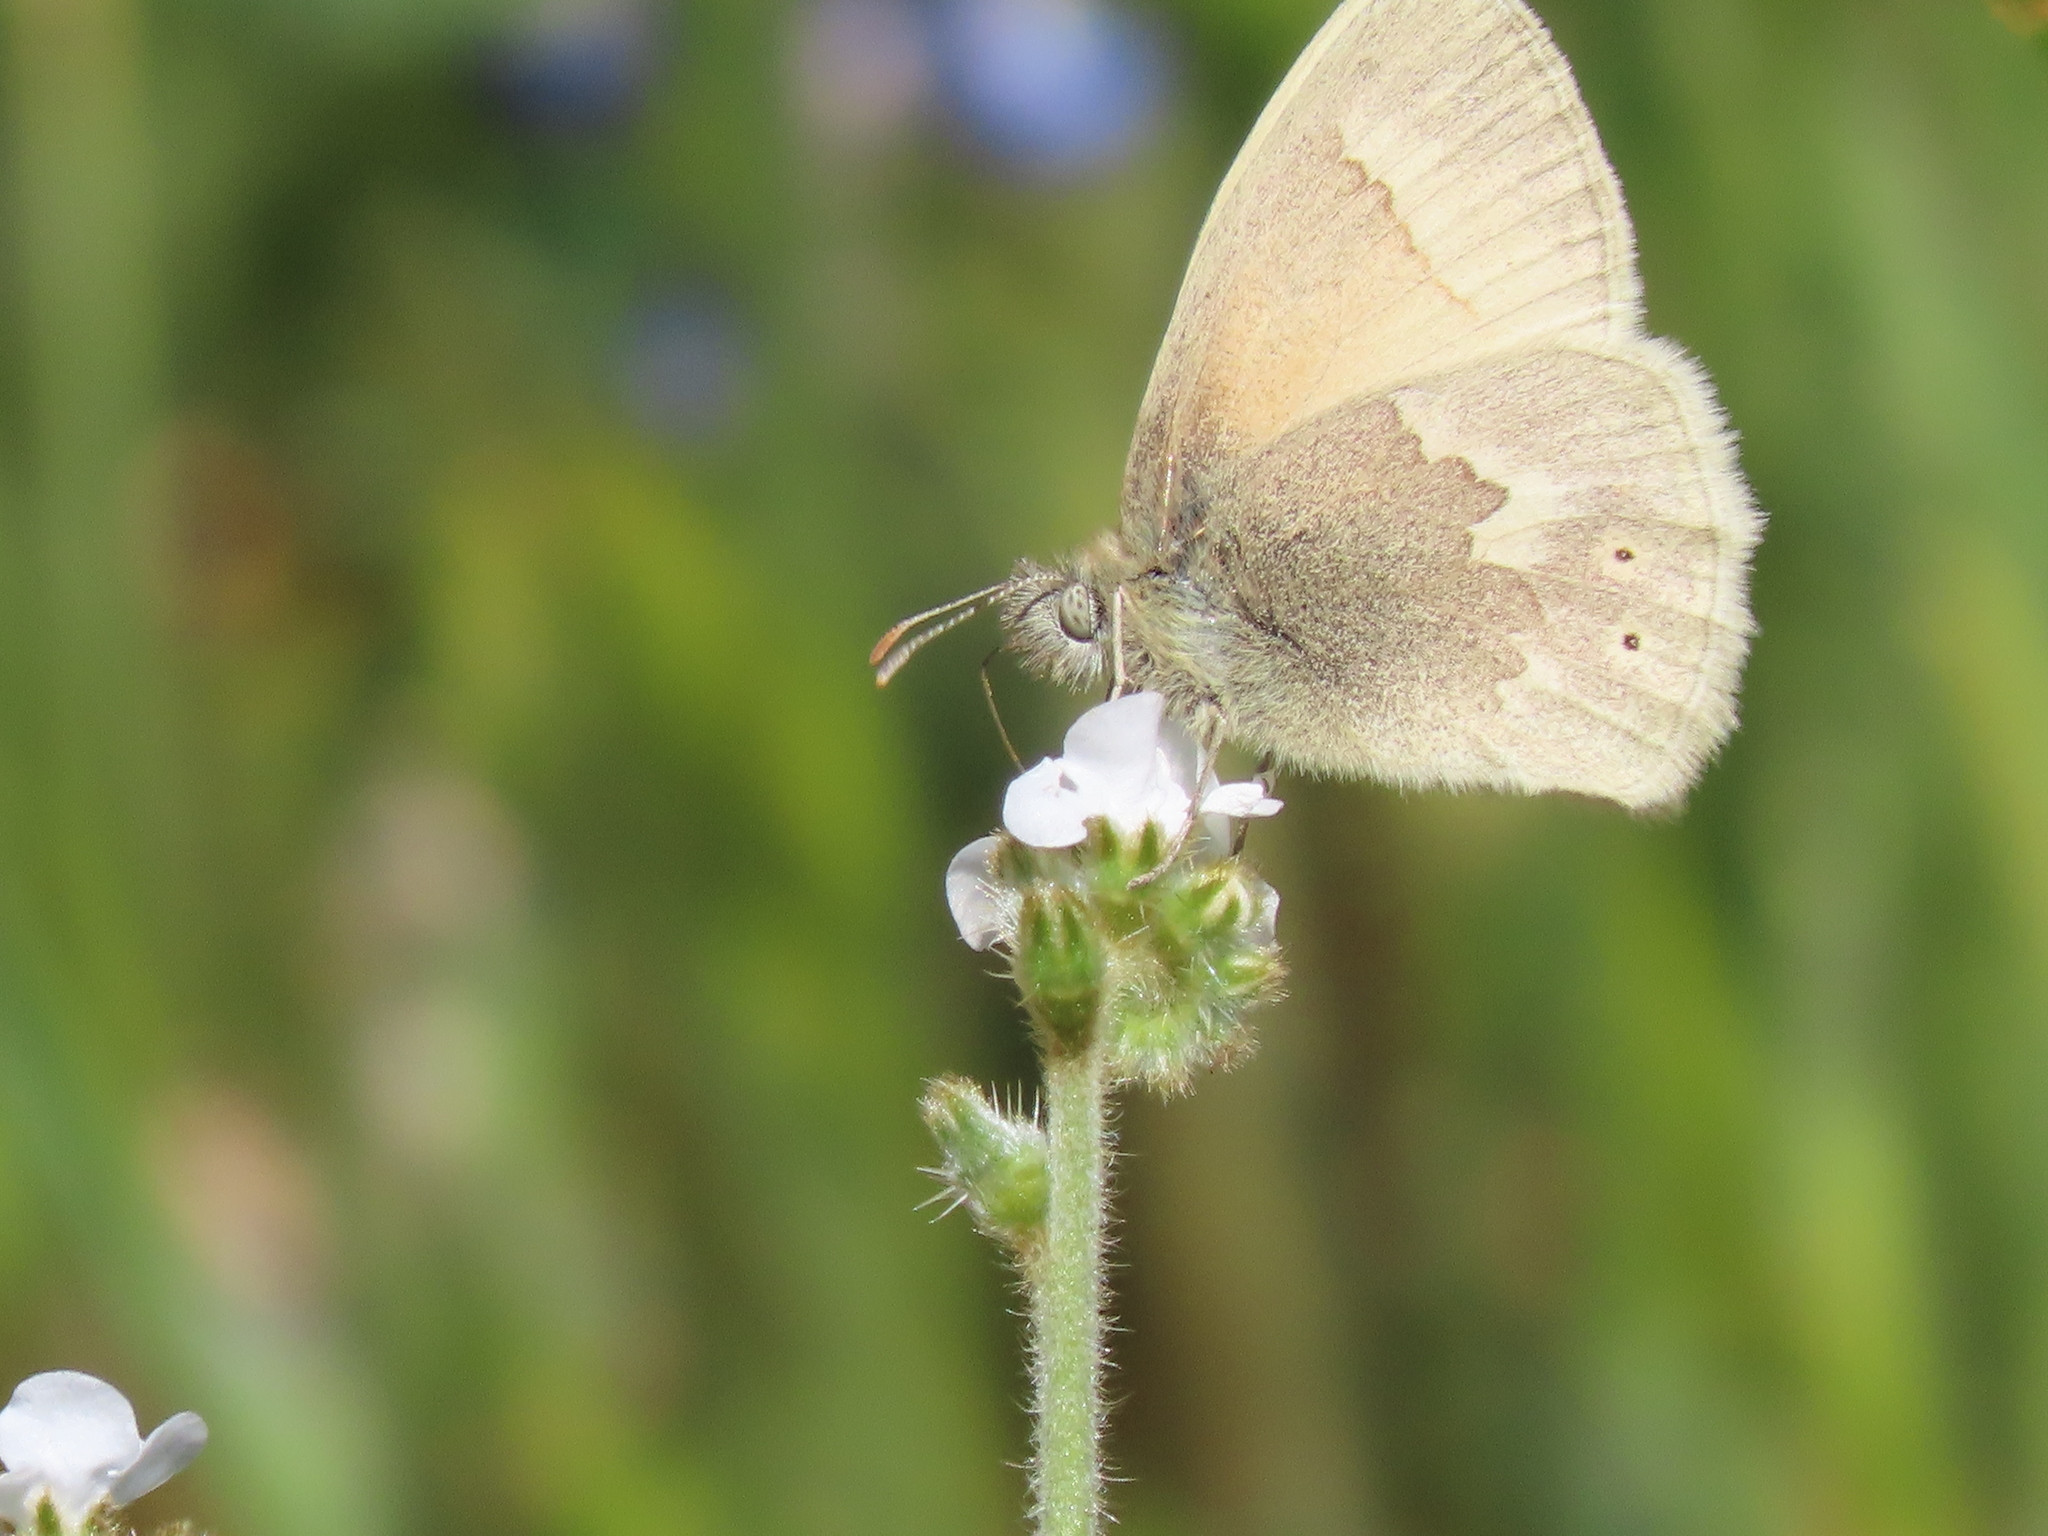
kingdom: Animalia
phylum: Arthropoda
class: Insecta
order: Lepidoptera
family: Nymphalidae
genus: Coenonympha
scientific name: Coenonympha california
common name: Common ringlet
